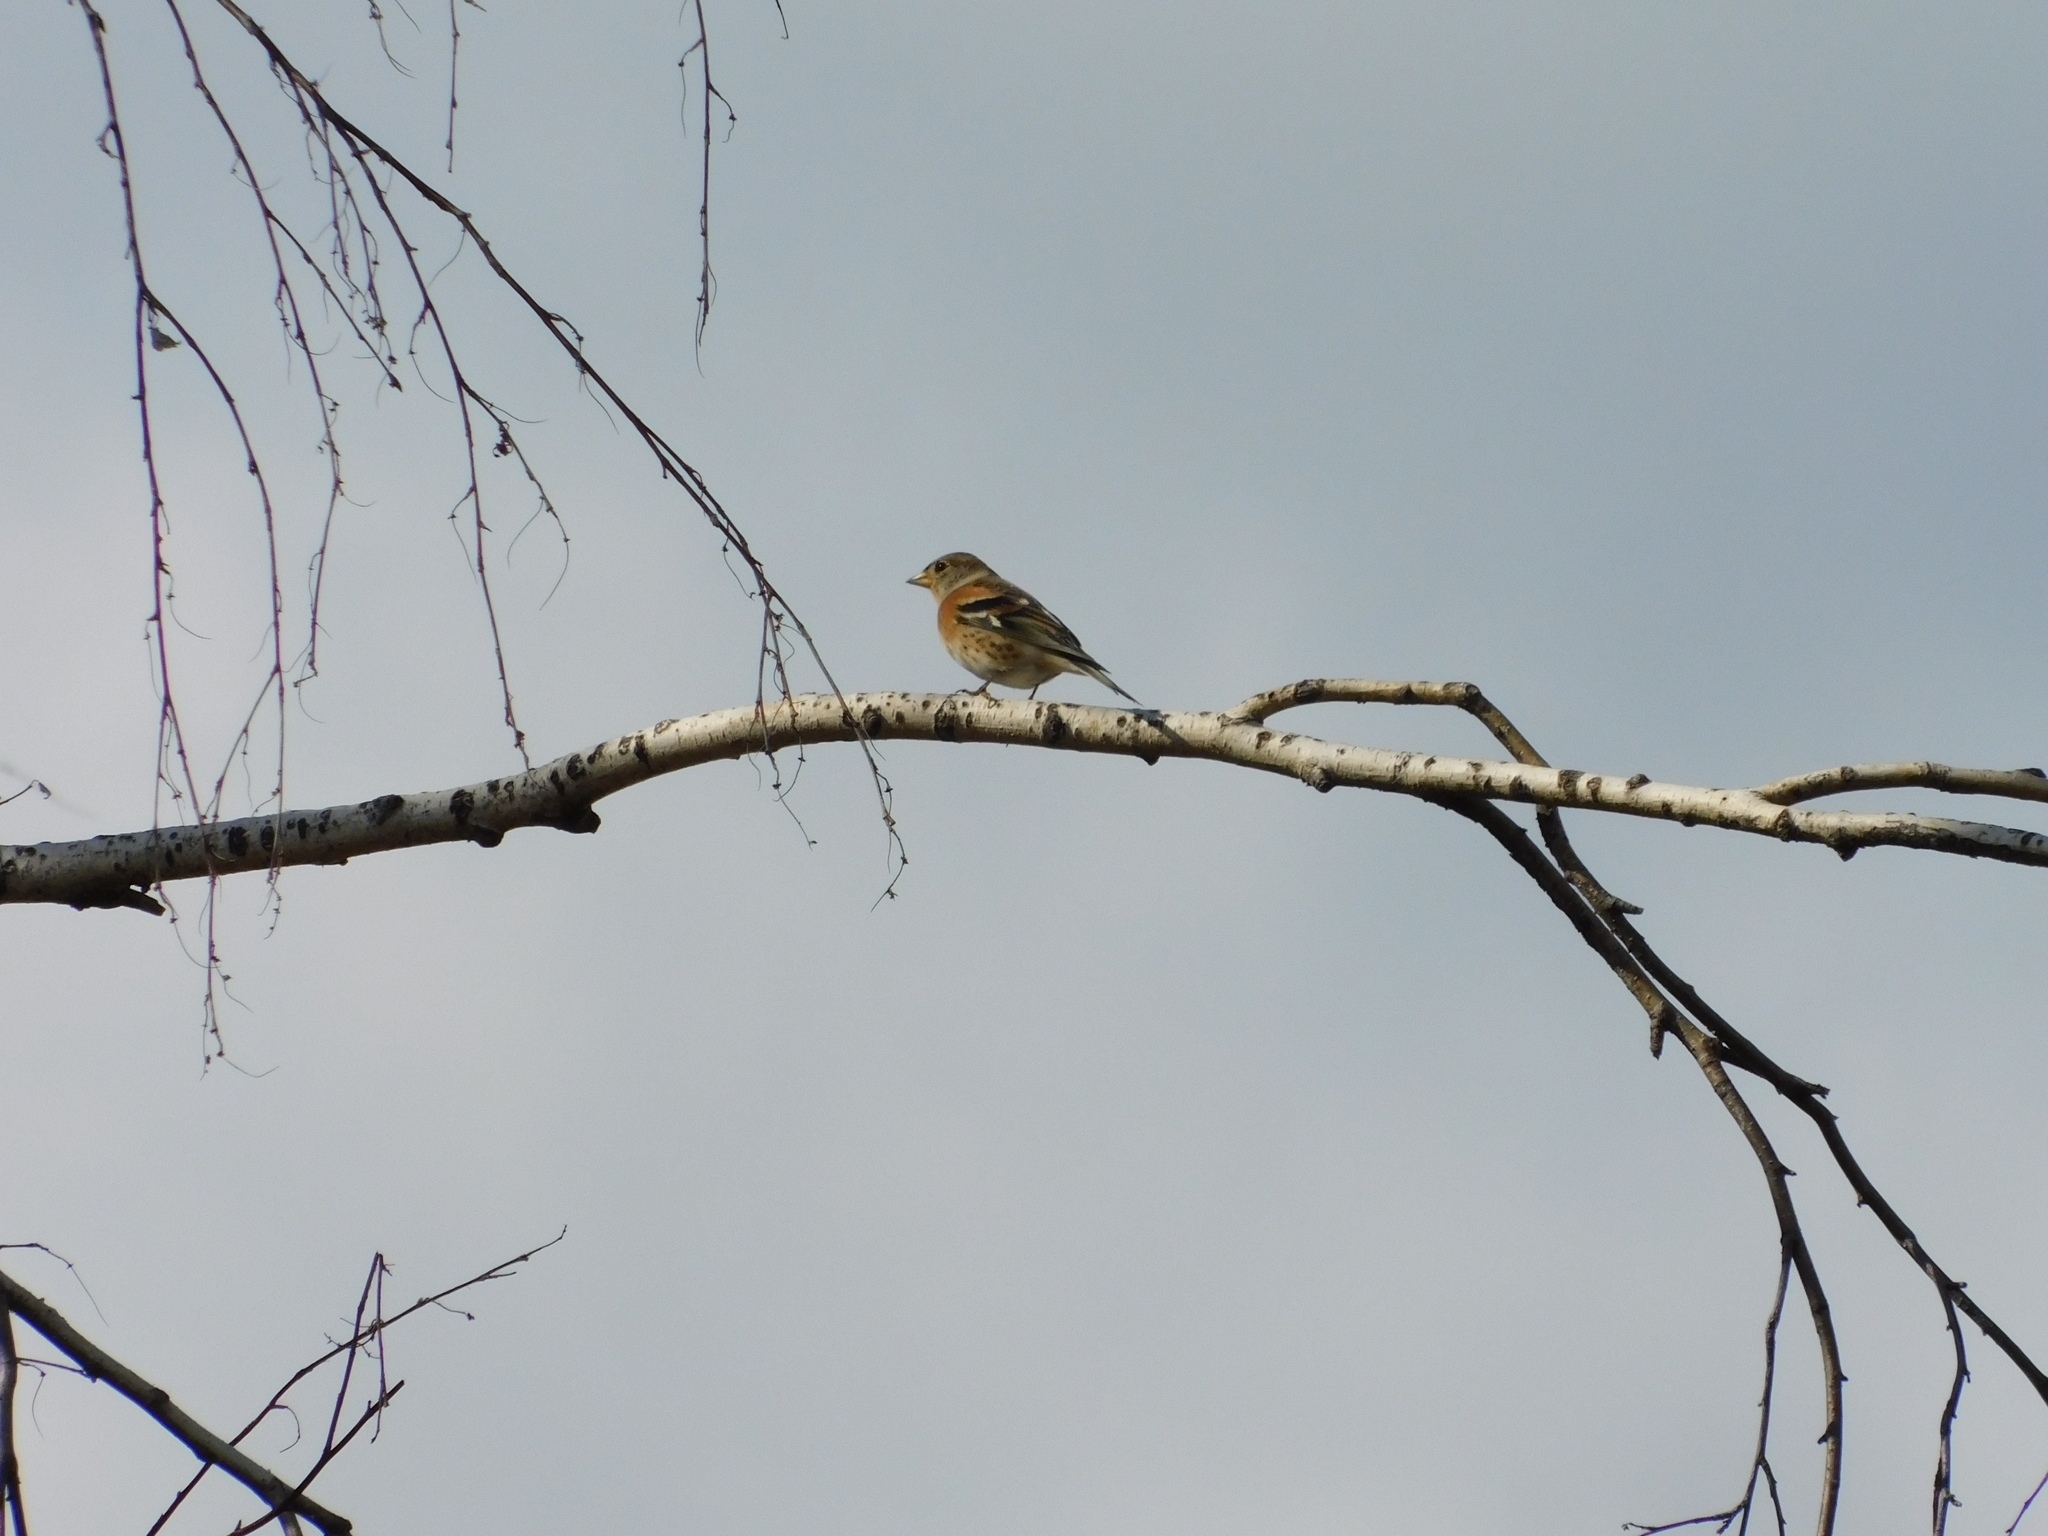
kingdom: Animalia
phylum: Chordata
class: Aves
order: Passeriformes
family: Fringillidae
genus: Fringilla
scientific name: Fringilla montifringilla
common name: Brambling
